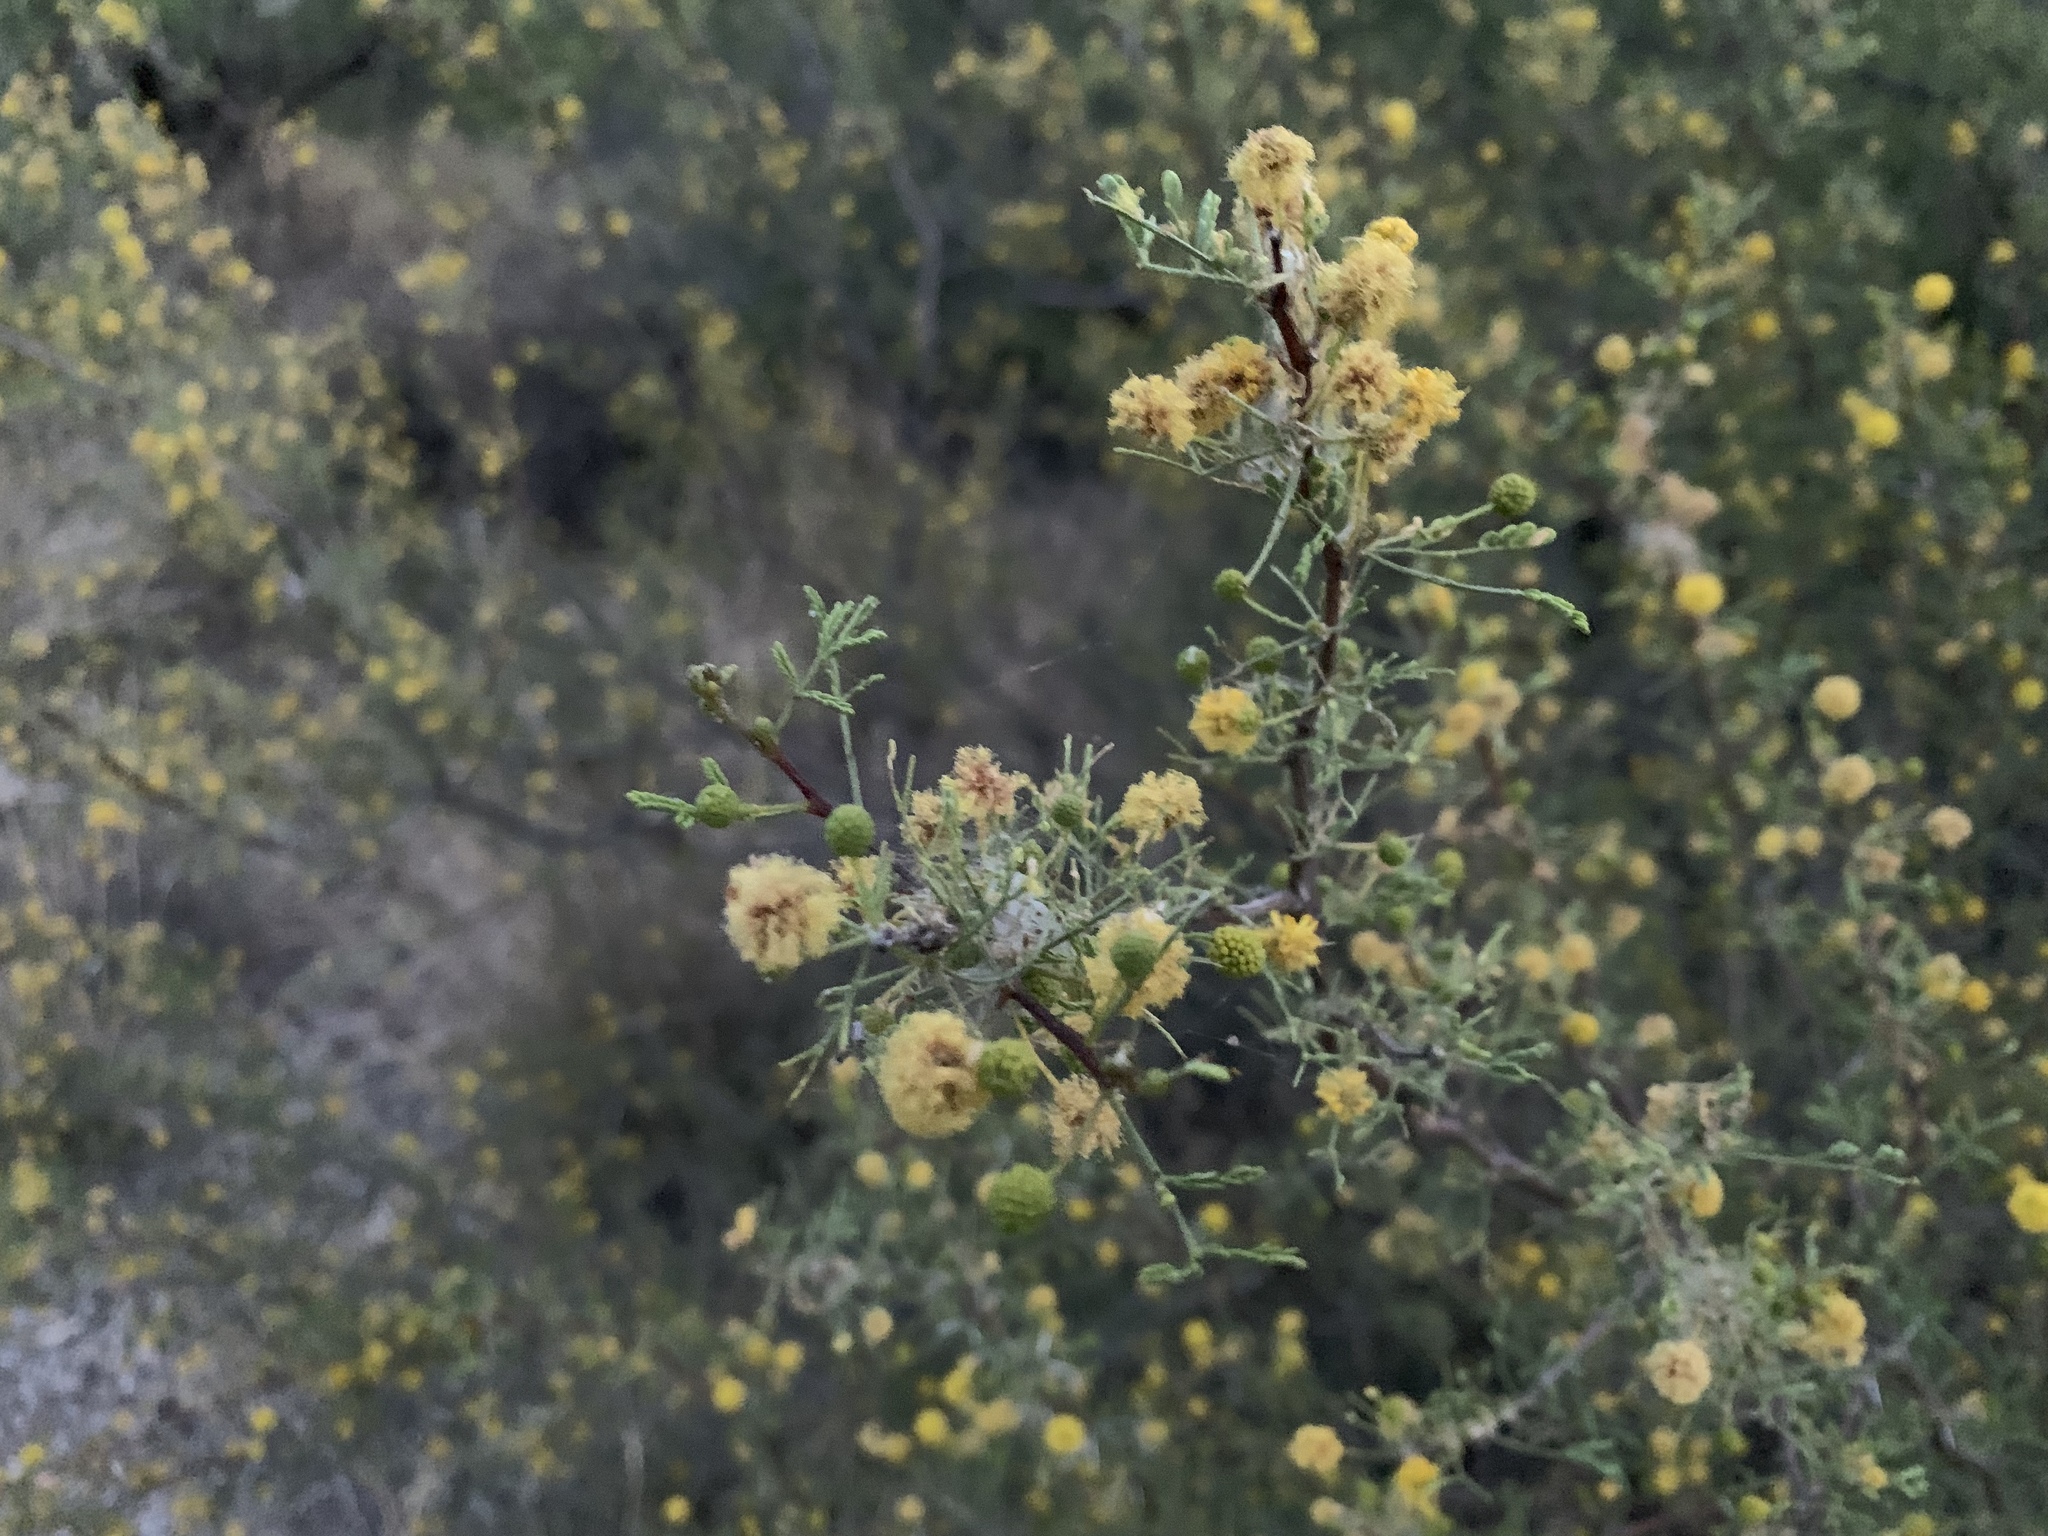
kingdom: Plantae
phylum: Tracheophyta
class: Magnoliopsida
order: Fabales
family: Fabaceae
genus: Vachellia
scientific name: Vachellia constricta
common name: Mescat acacia
